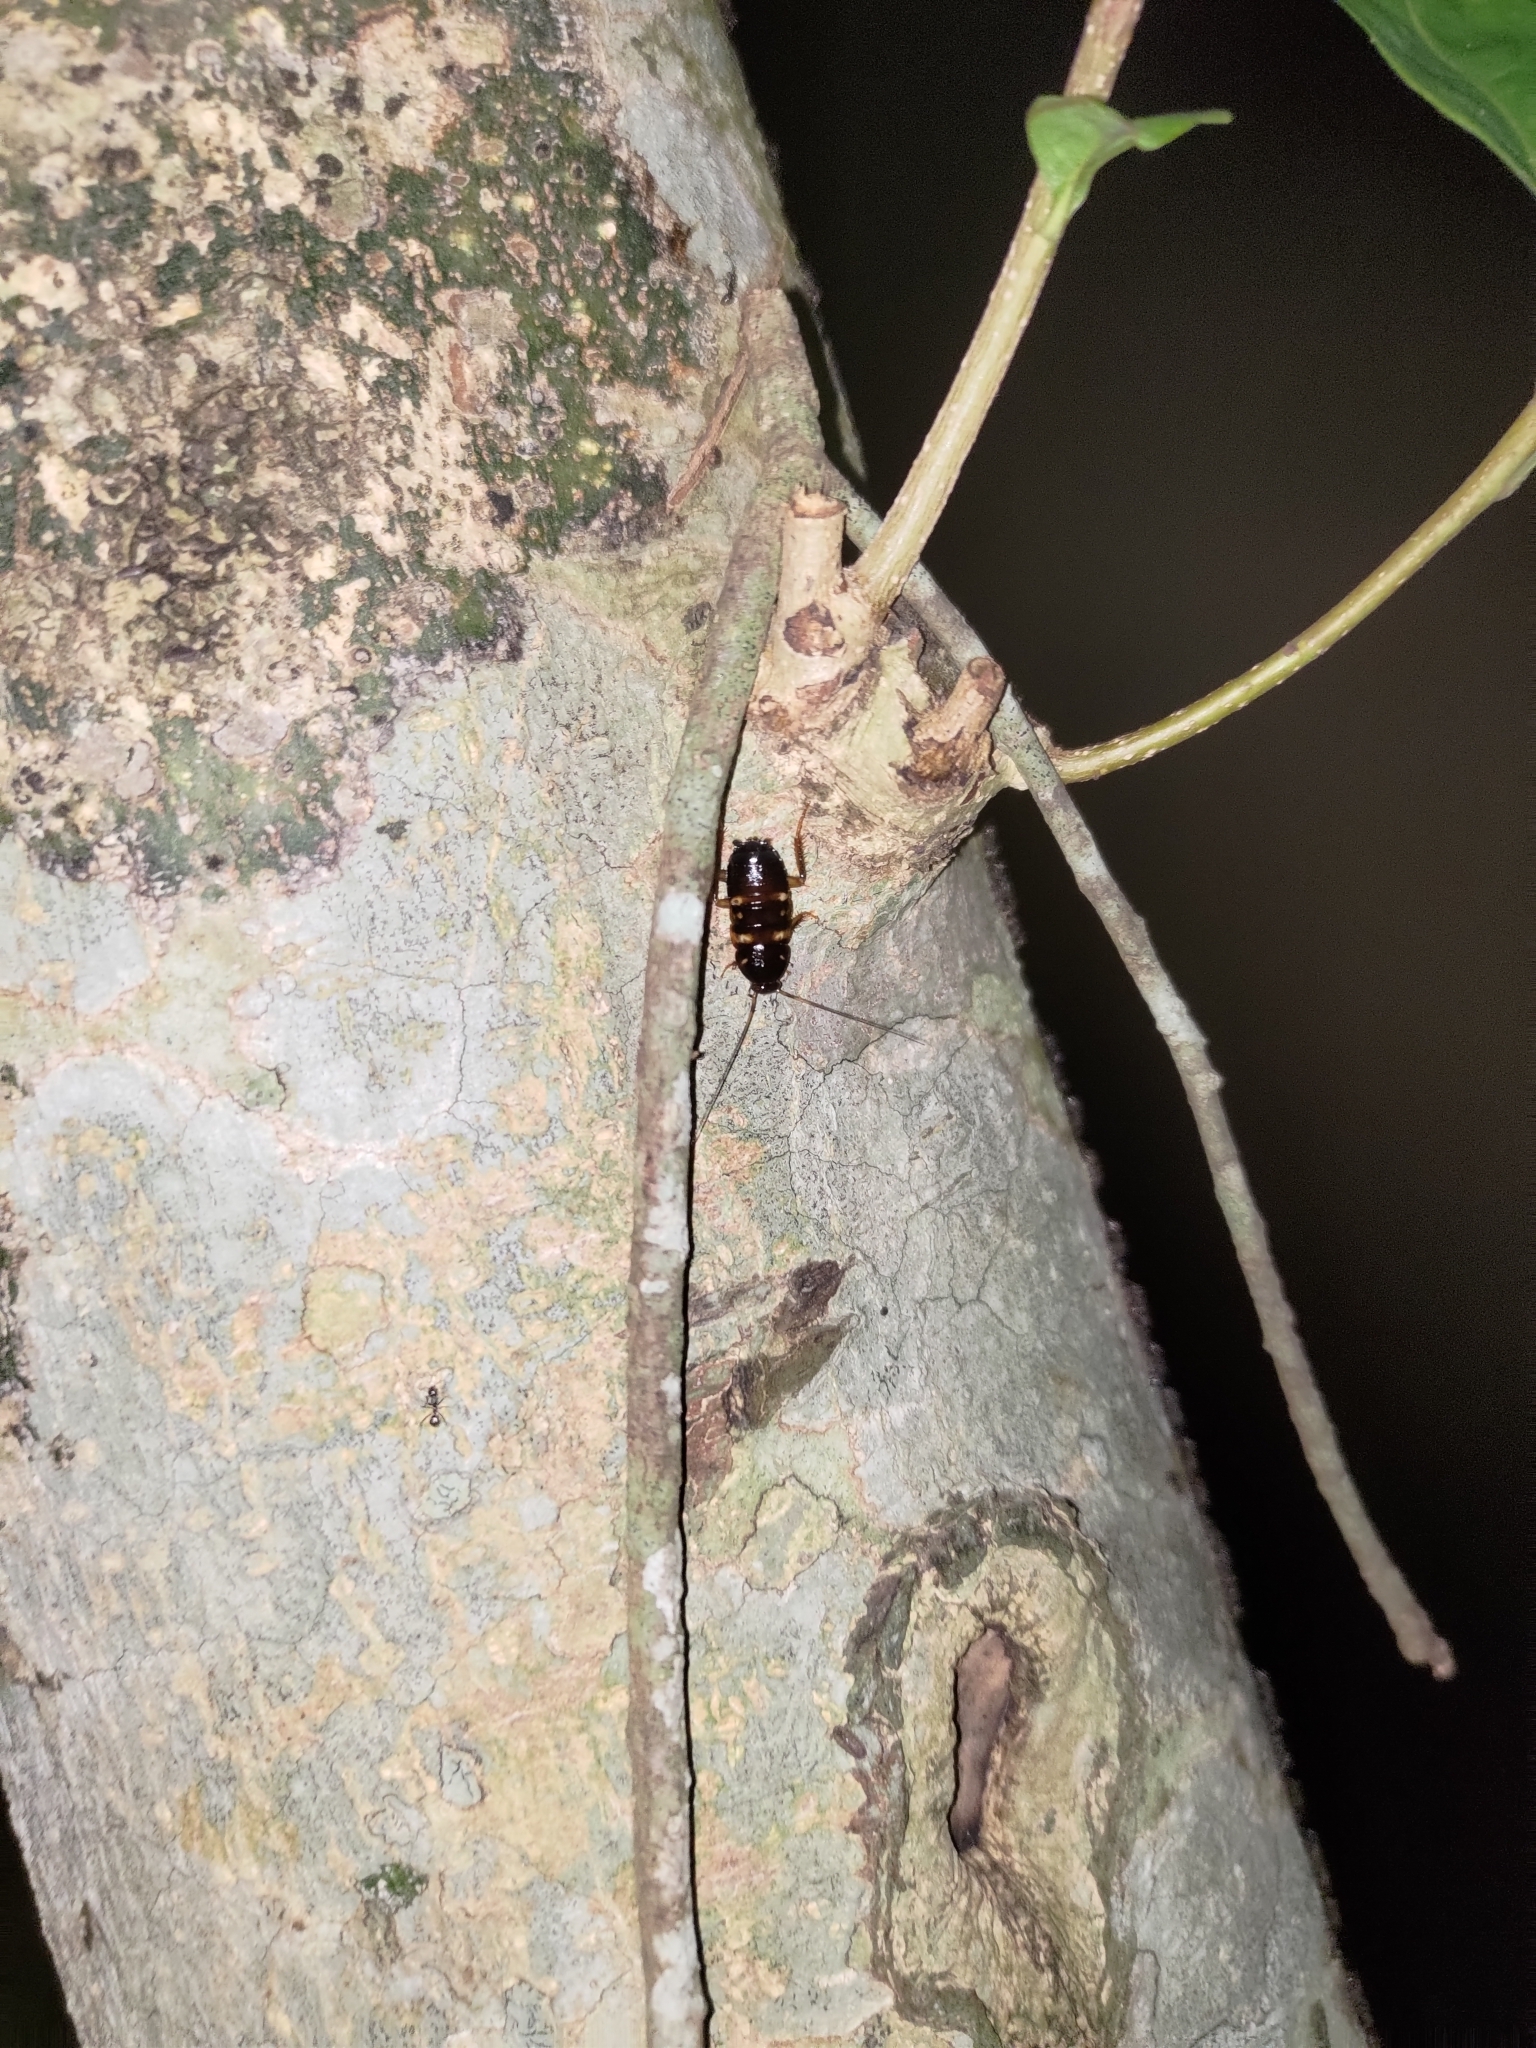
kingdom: Animalia
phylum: Arthropoda
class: Insecta
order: Blattodea
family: Blattidae
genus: Periplaneta
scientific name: Periplaneta australasiae
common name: Australian cockroach
